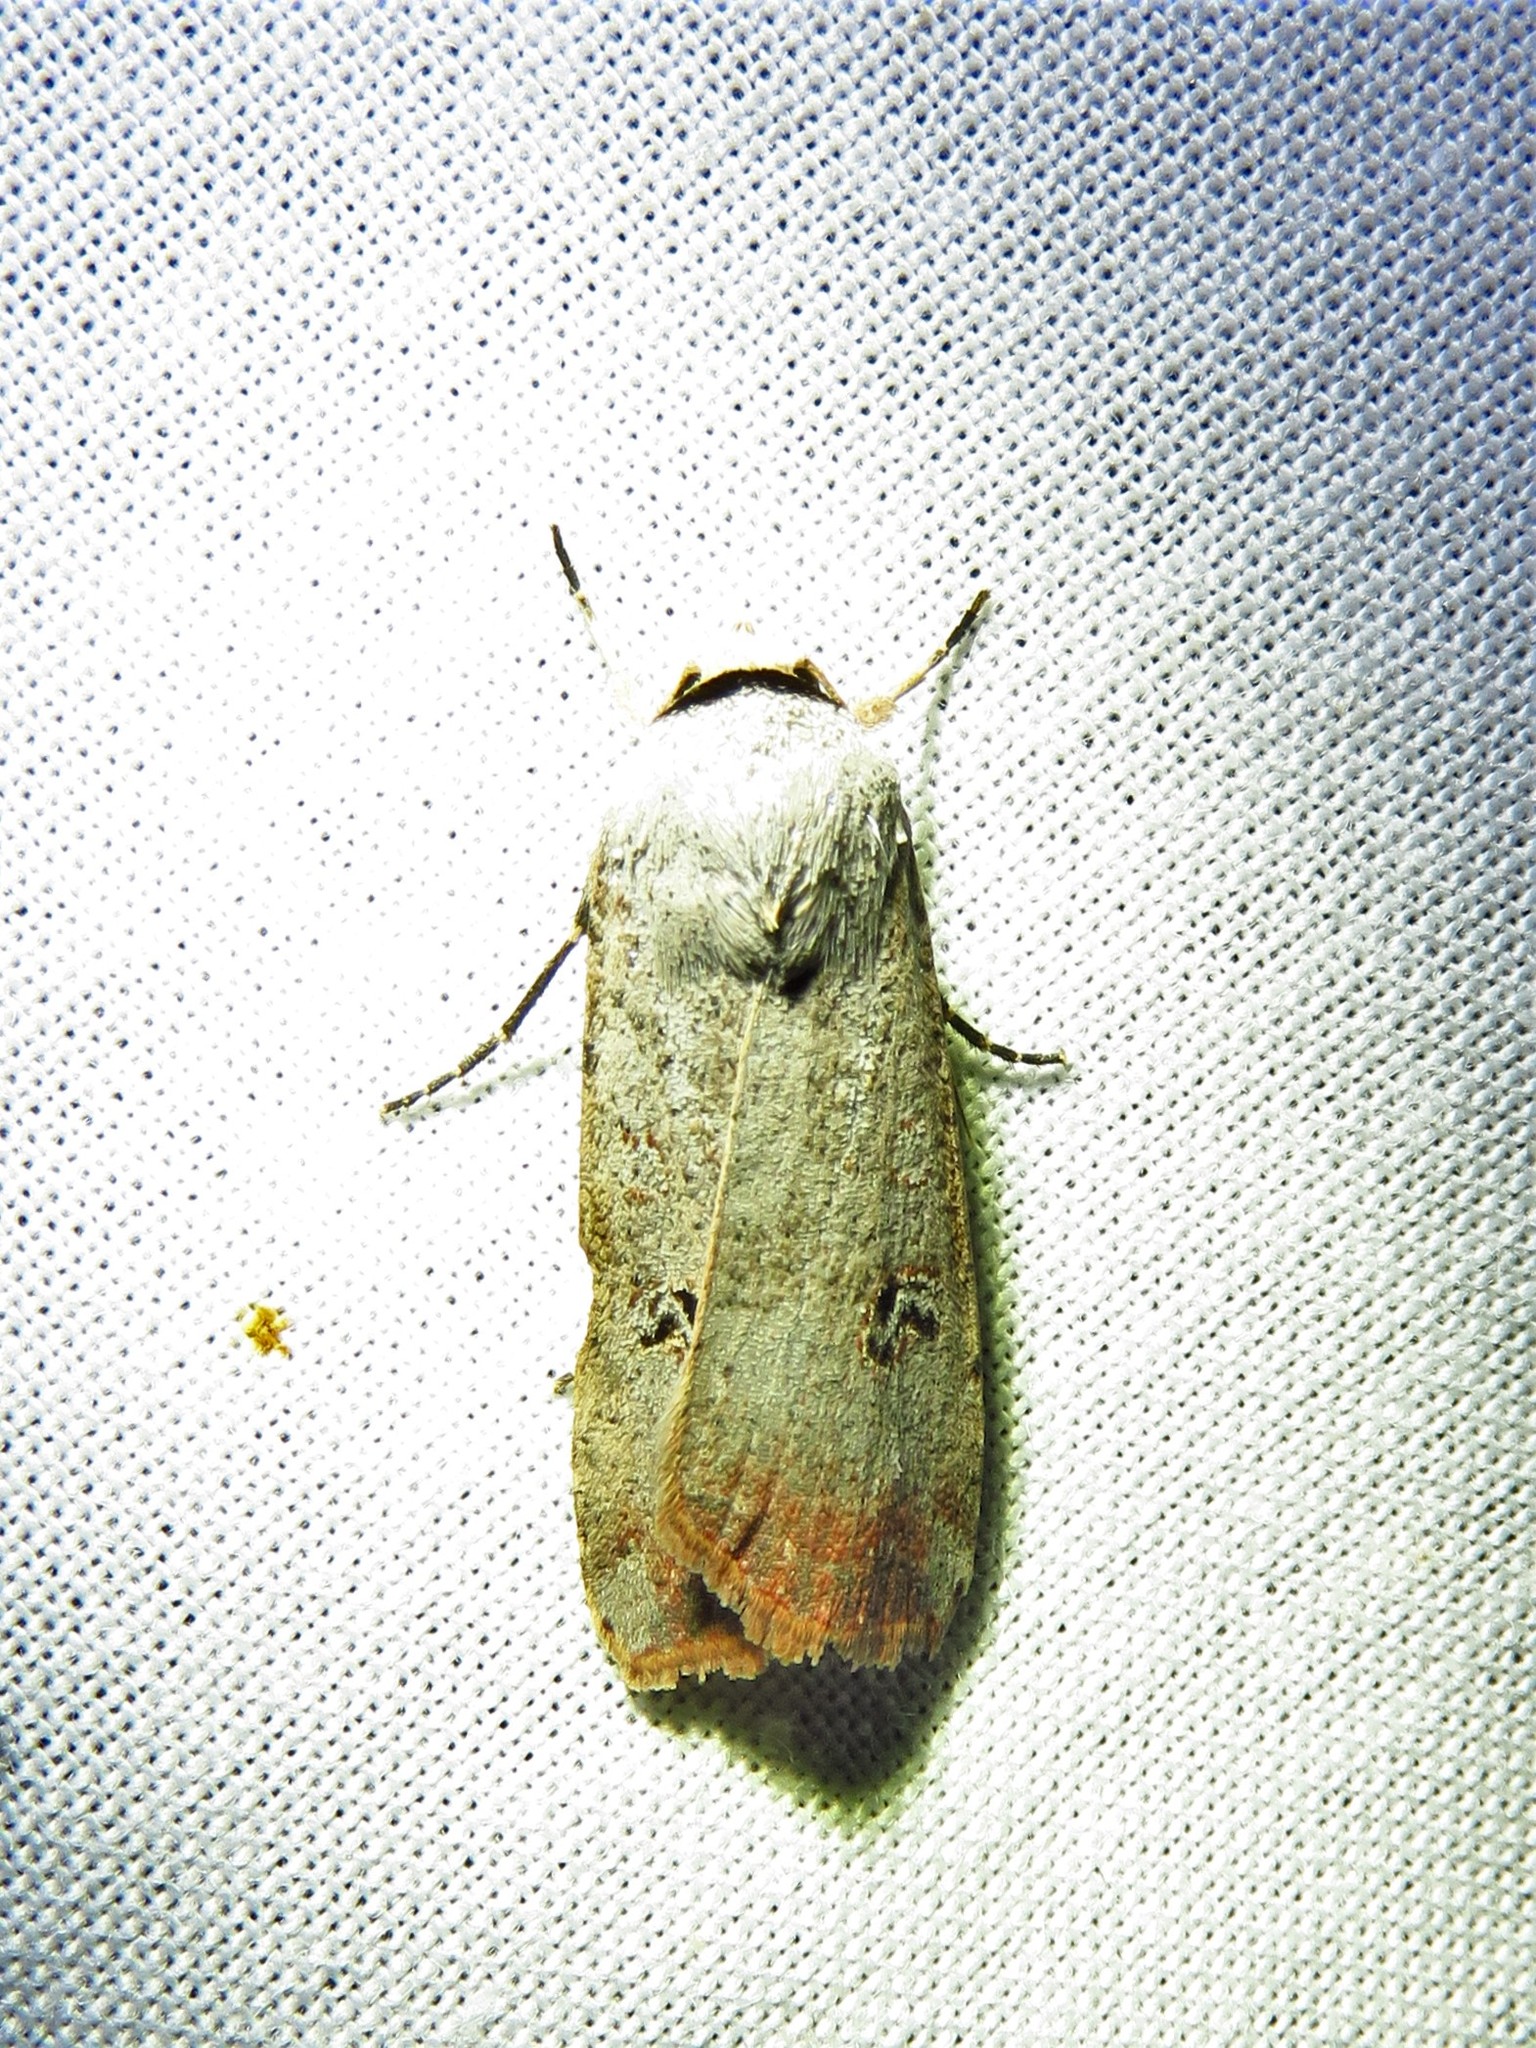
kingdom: Animalia
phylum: Arthropoda
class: Insecta
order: Lepidoptera
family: Noctuidae
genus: Anicla
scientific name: Anicla infecta
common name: Green cutworm
